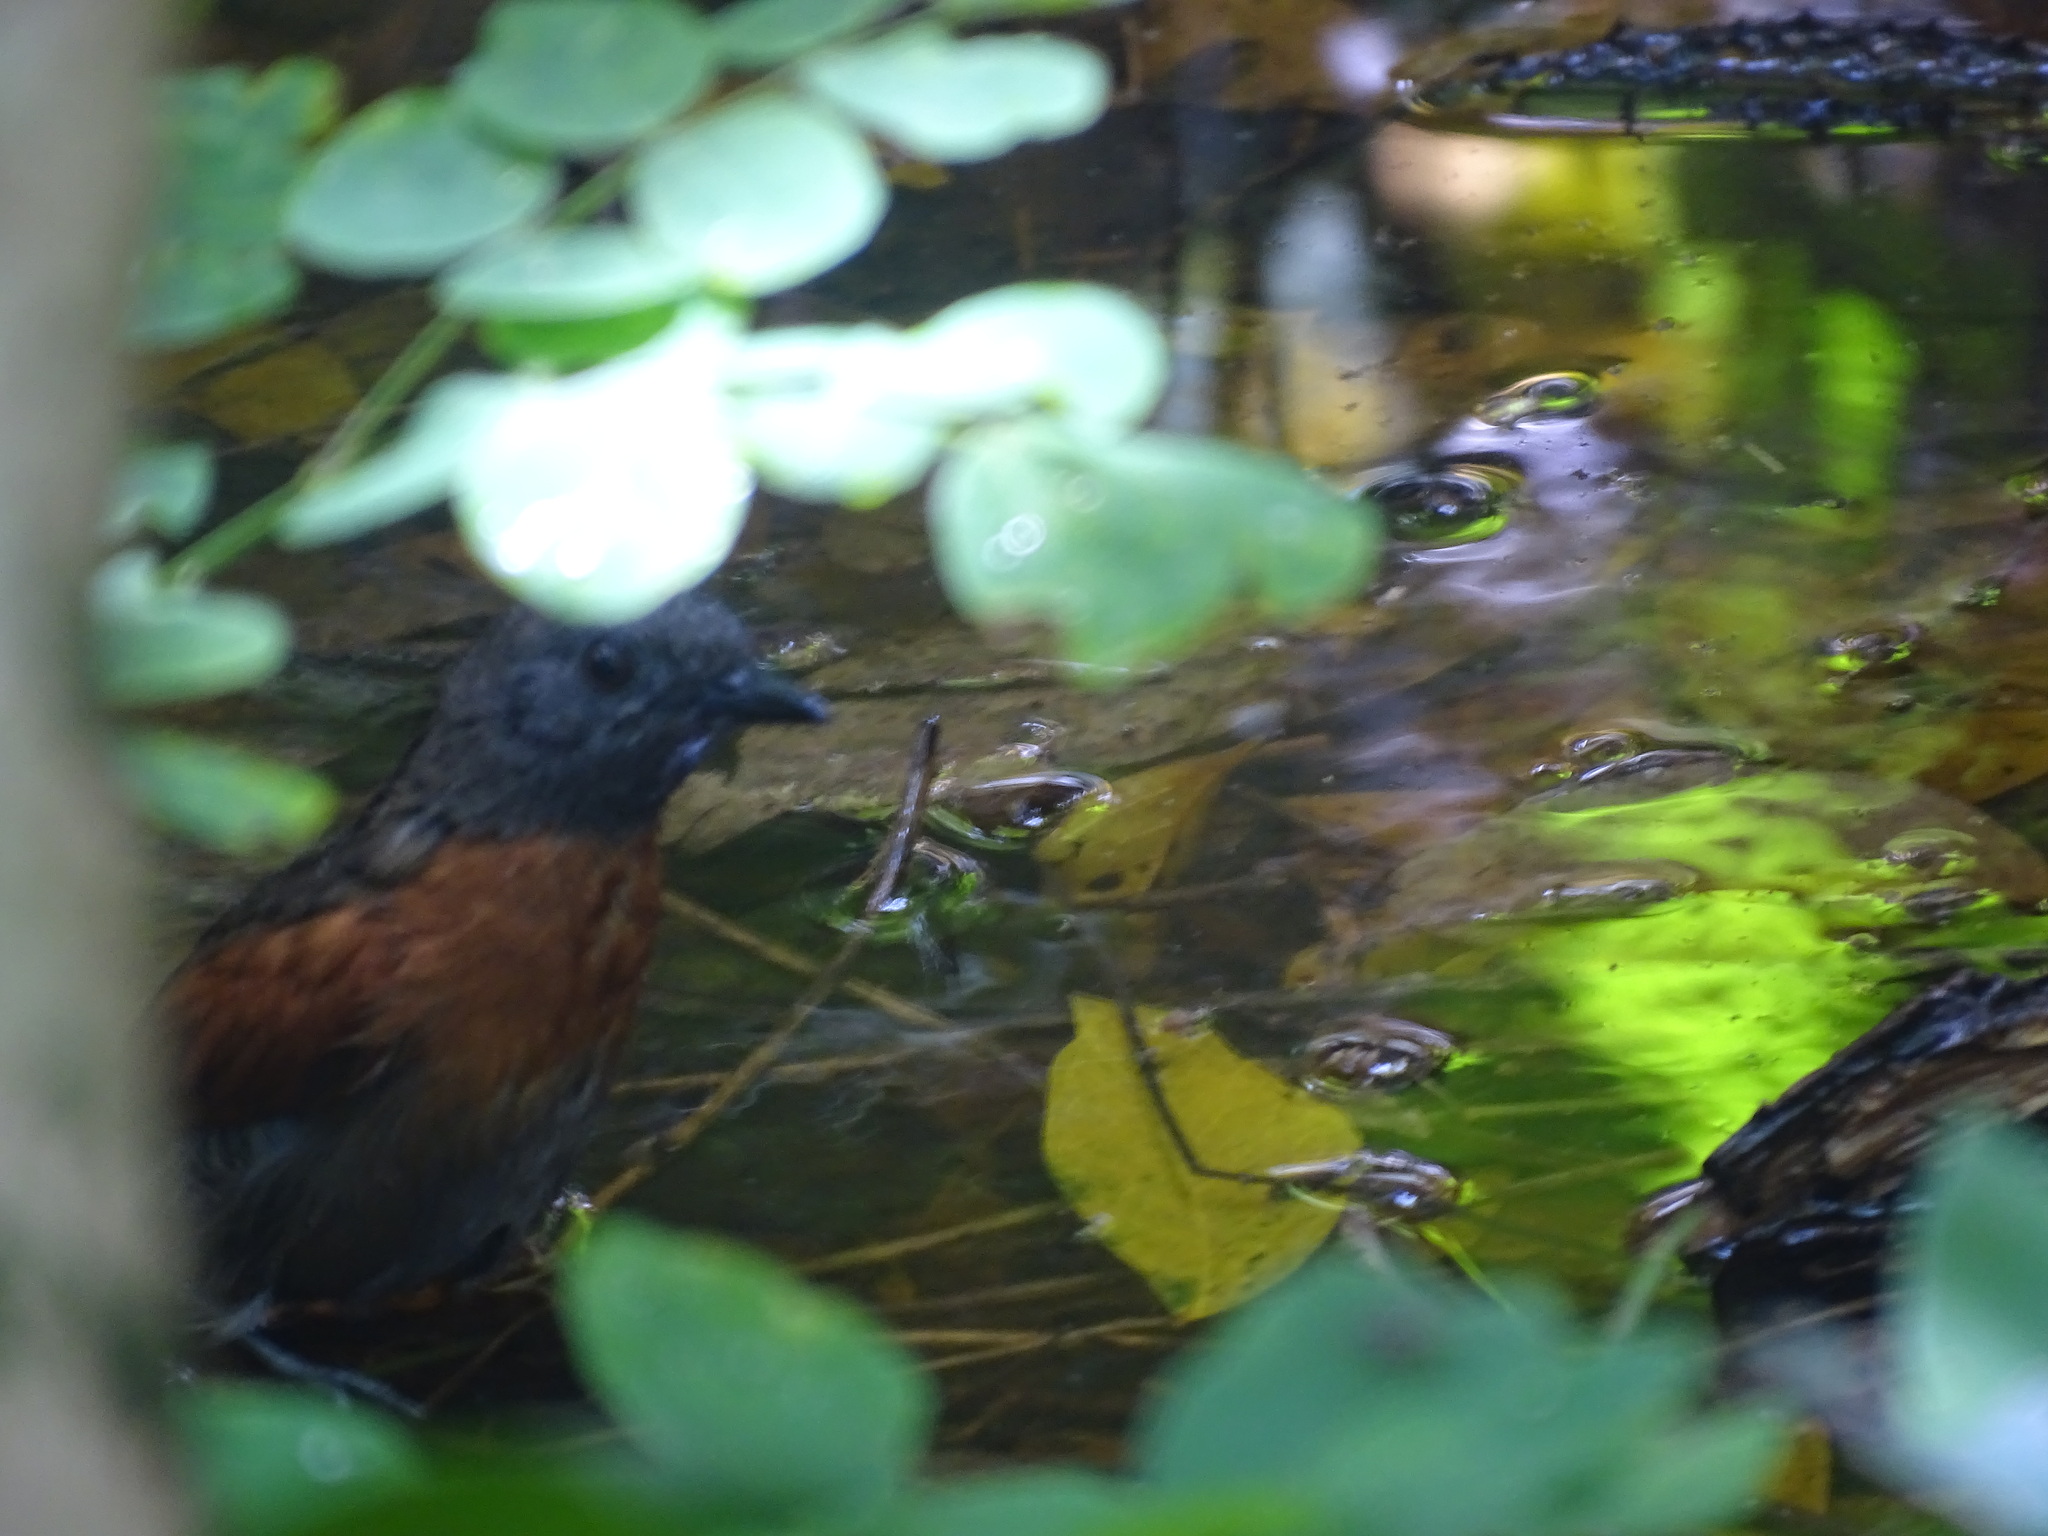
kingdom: Animalia
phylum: Chordata
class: Aves
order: Passeriformes
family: Furnariidae
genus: Synallaxis
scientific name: Synallaxis erythrothorax
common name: Rufous-breasted spinetail
